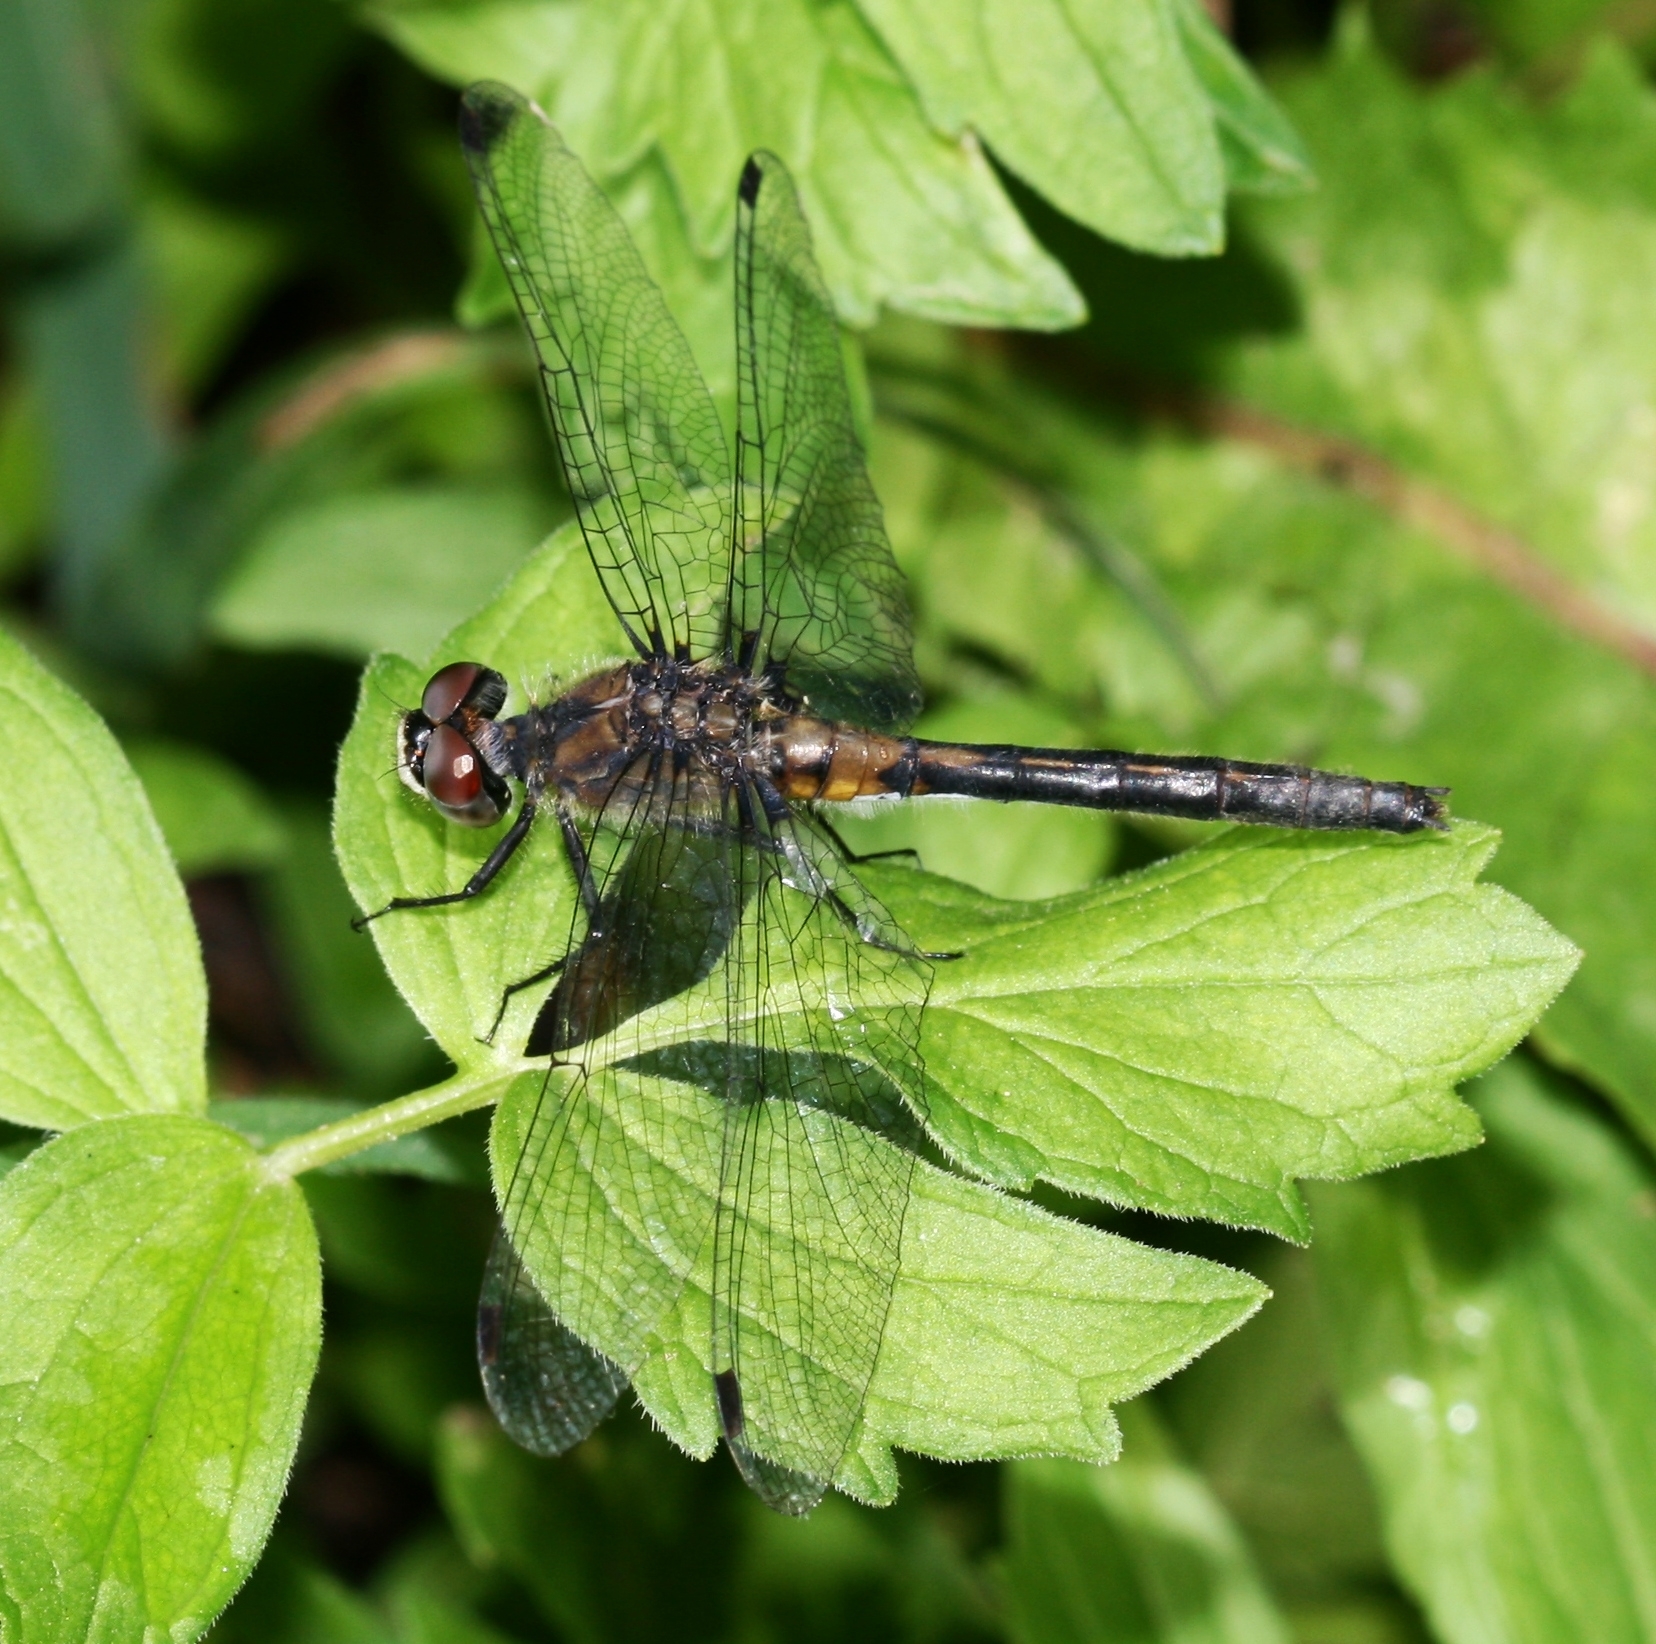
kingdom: Animalia
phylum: Arthropoda
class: Insecta
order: Odonata
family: Libellulidae
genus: Leucorrhinia
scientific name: Leucorrhinia proxima
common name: Belted whiteface
